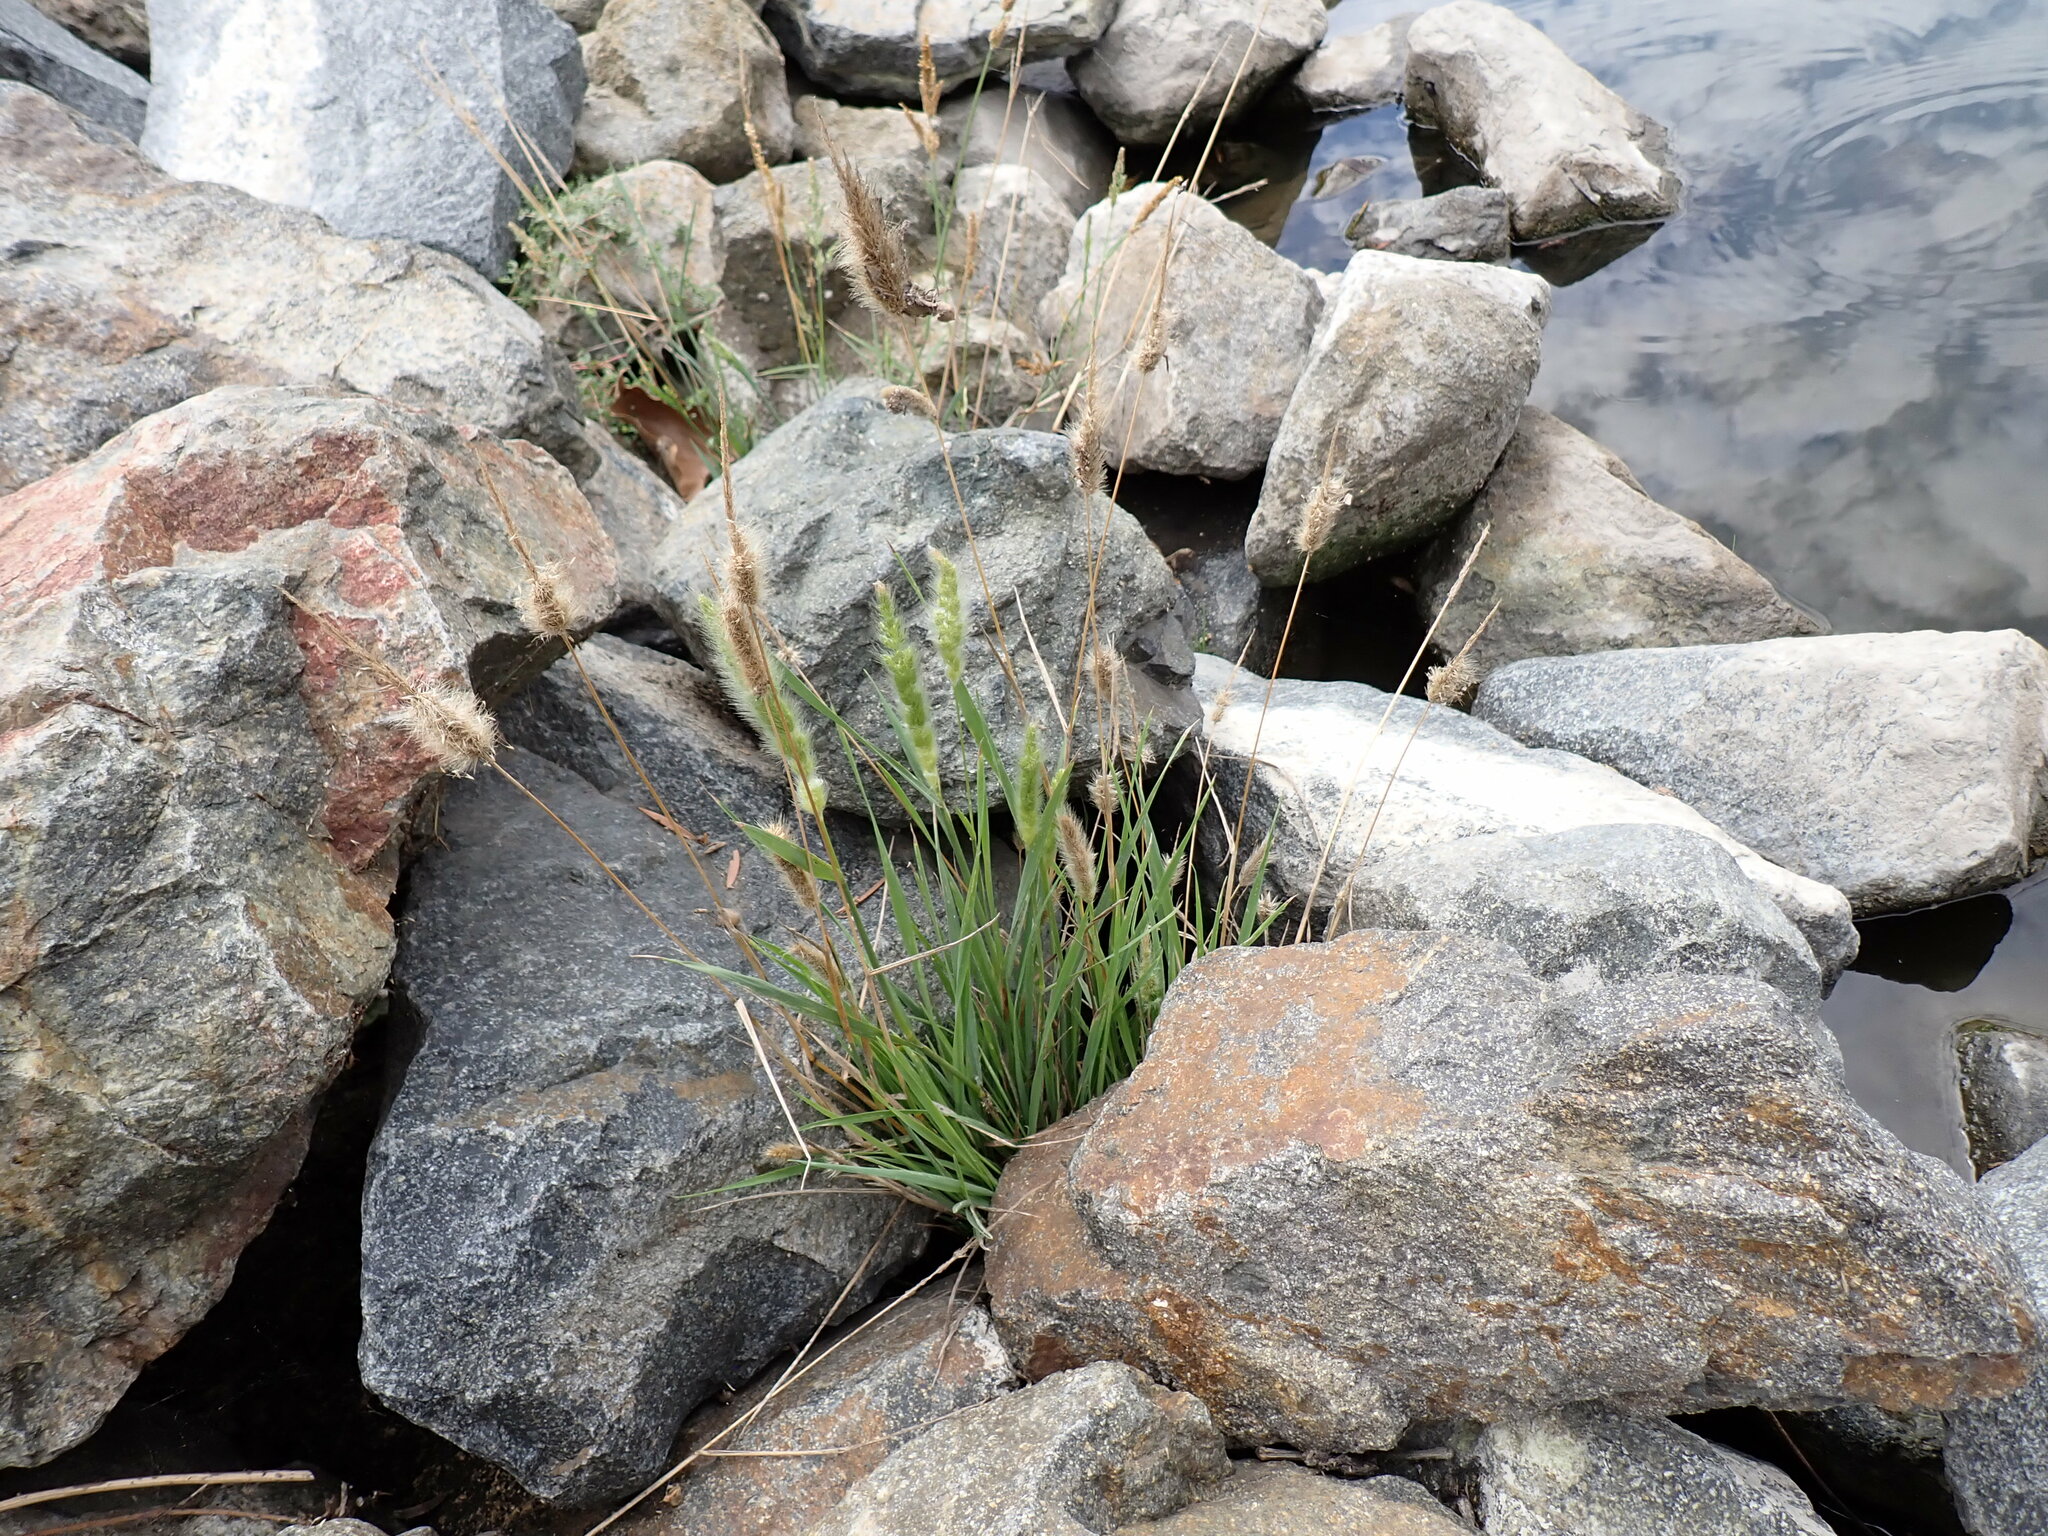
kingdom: Plantae
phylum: Tracheophyta
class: Liliopsida
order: Poales
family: Poaceae
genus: Polypogon
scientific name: Polypogon monspeliensis
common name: Annual rabbitsfoot grass
